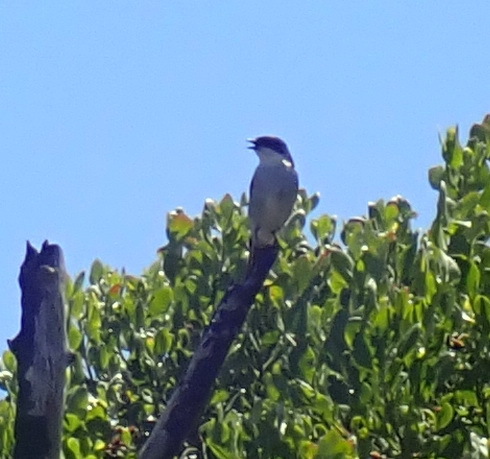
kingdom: Animalia
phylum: Chordata
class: Aves
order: Passeriformes
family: Muscicapidae
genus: Sigelus
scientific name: Sigelus silens
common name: Fiscal flycatcher
